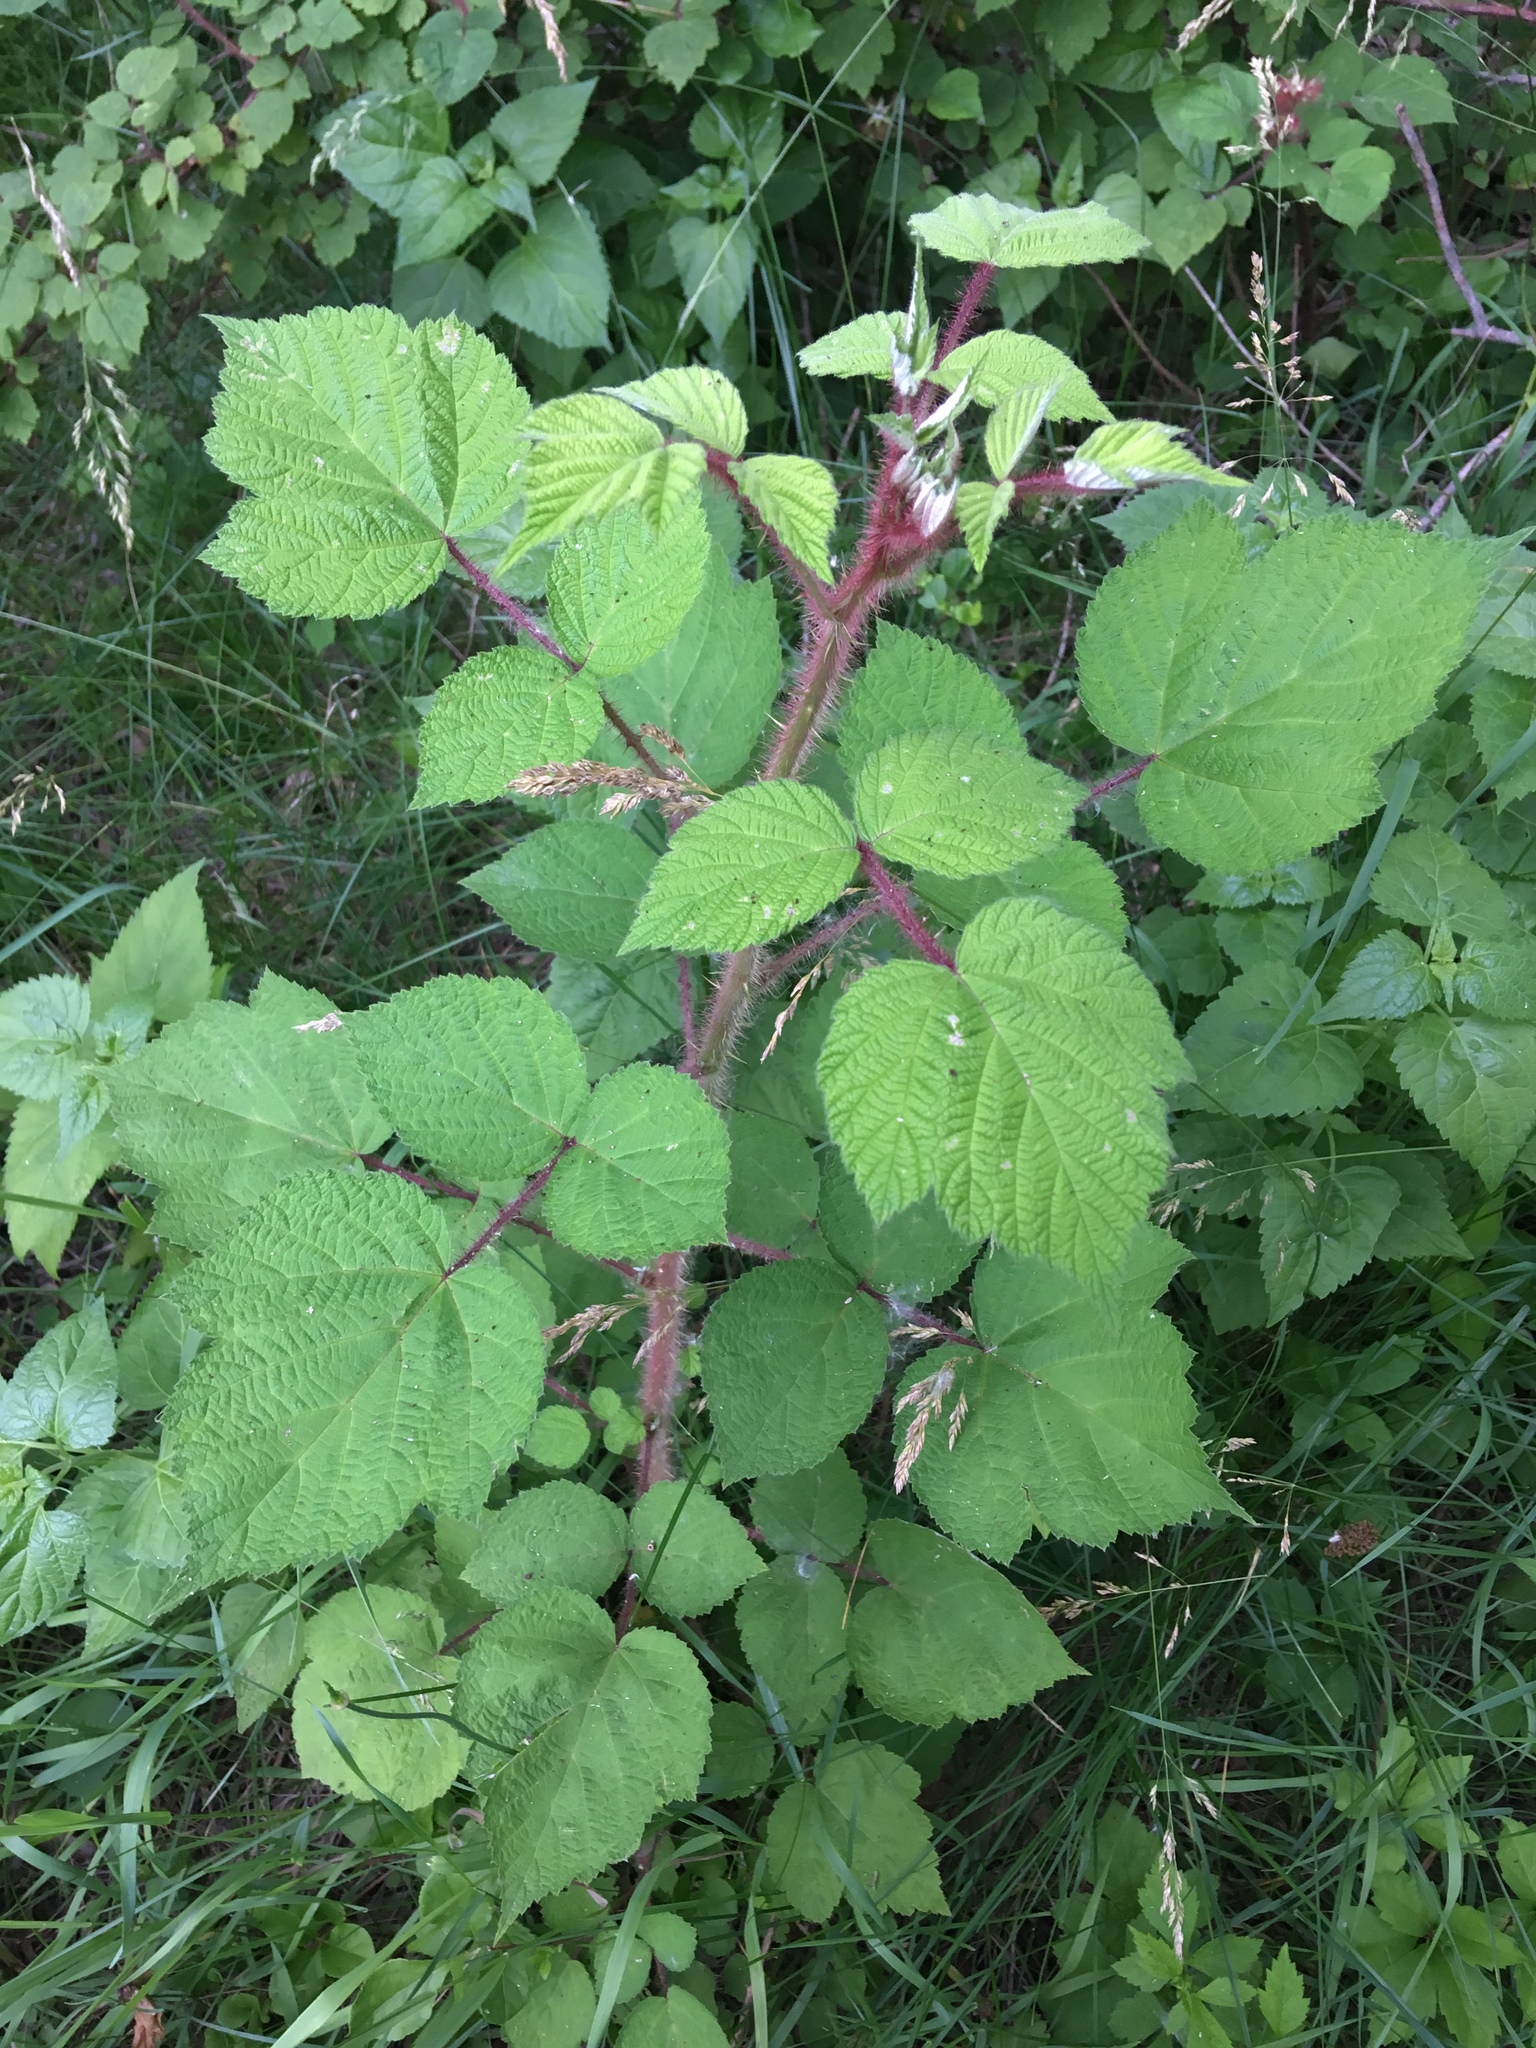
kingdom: Plantae
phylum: Tracheophyta
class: Magnoliopsida
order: Rosales
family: Rosaceae
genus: Rubus
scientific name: Rubus phoenicolasius
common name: Japanese wineberry
